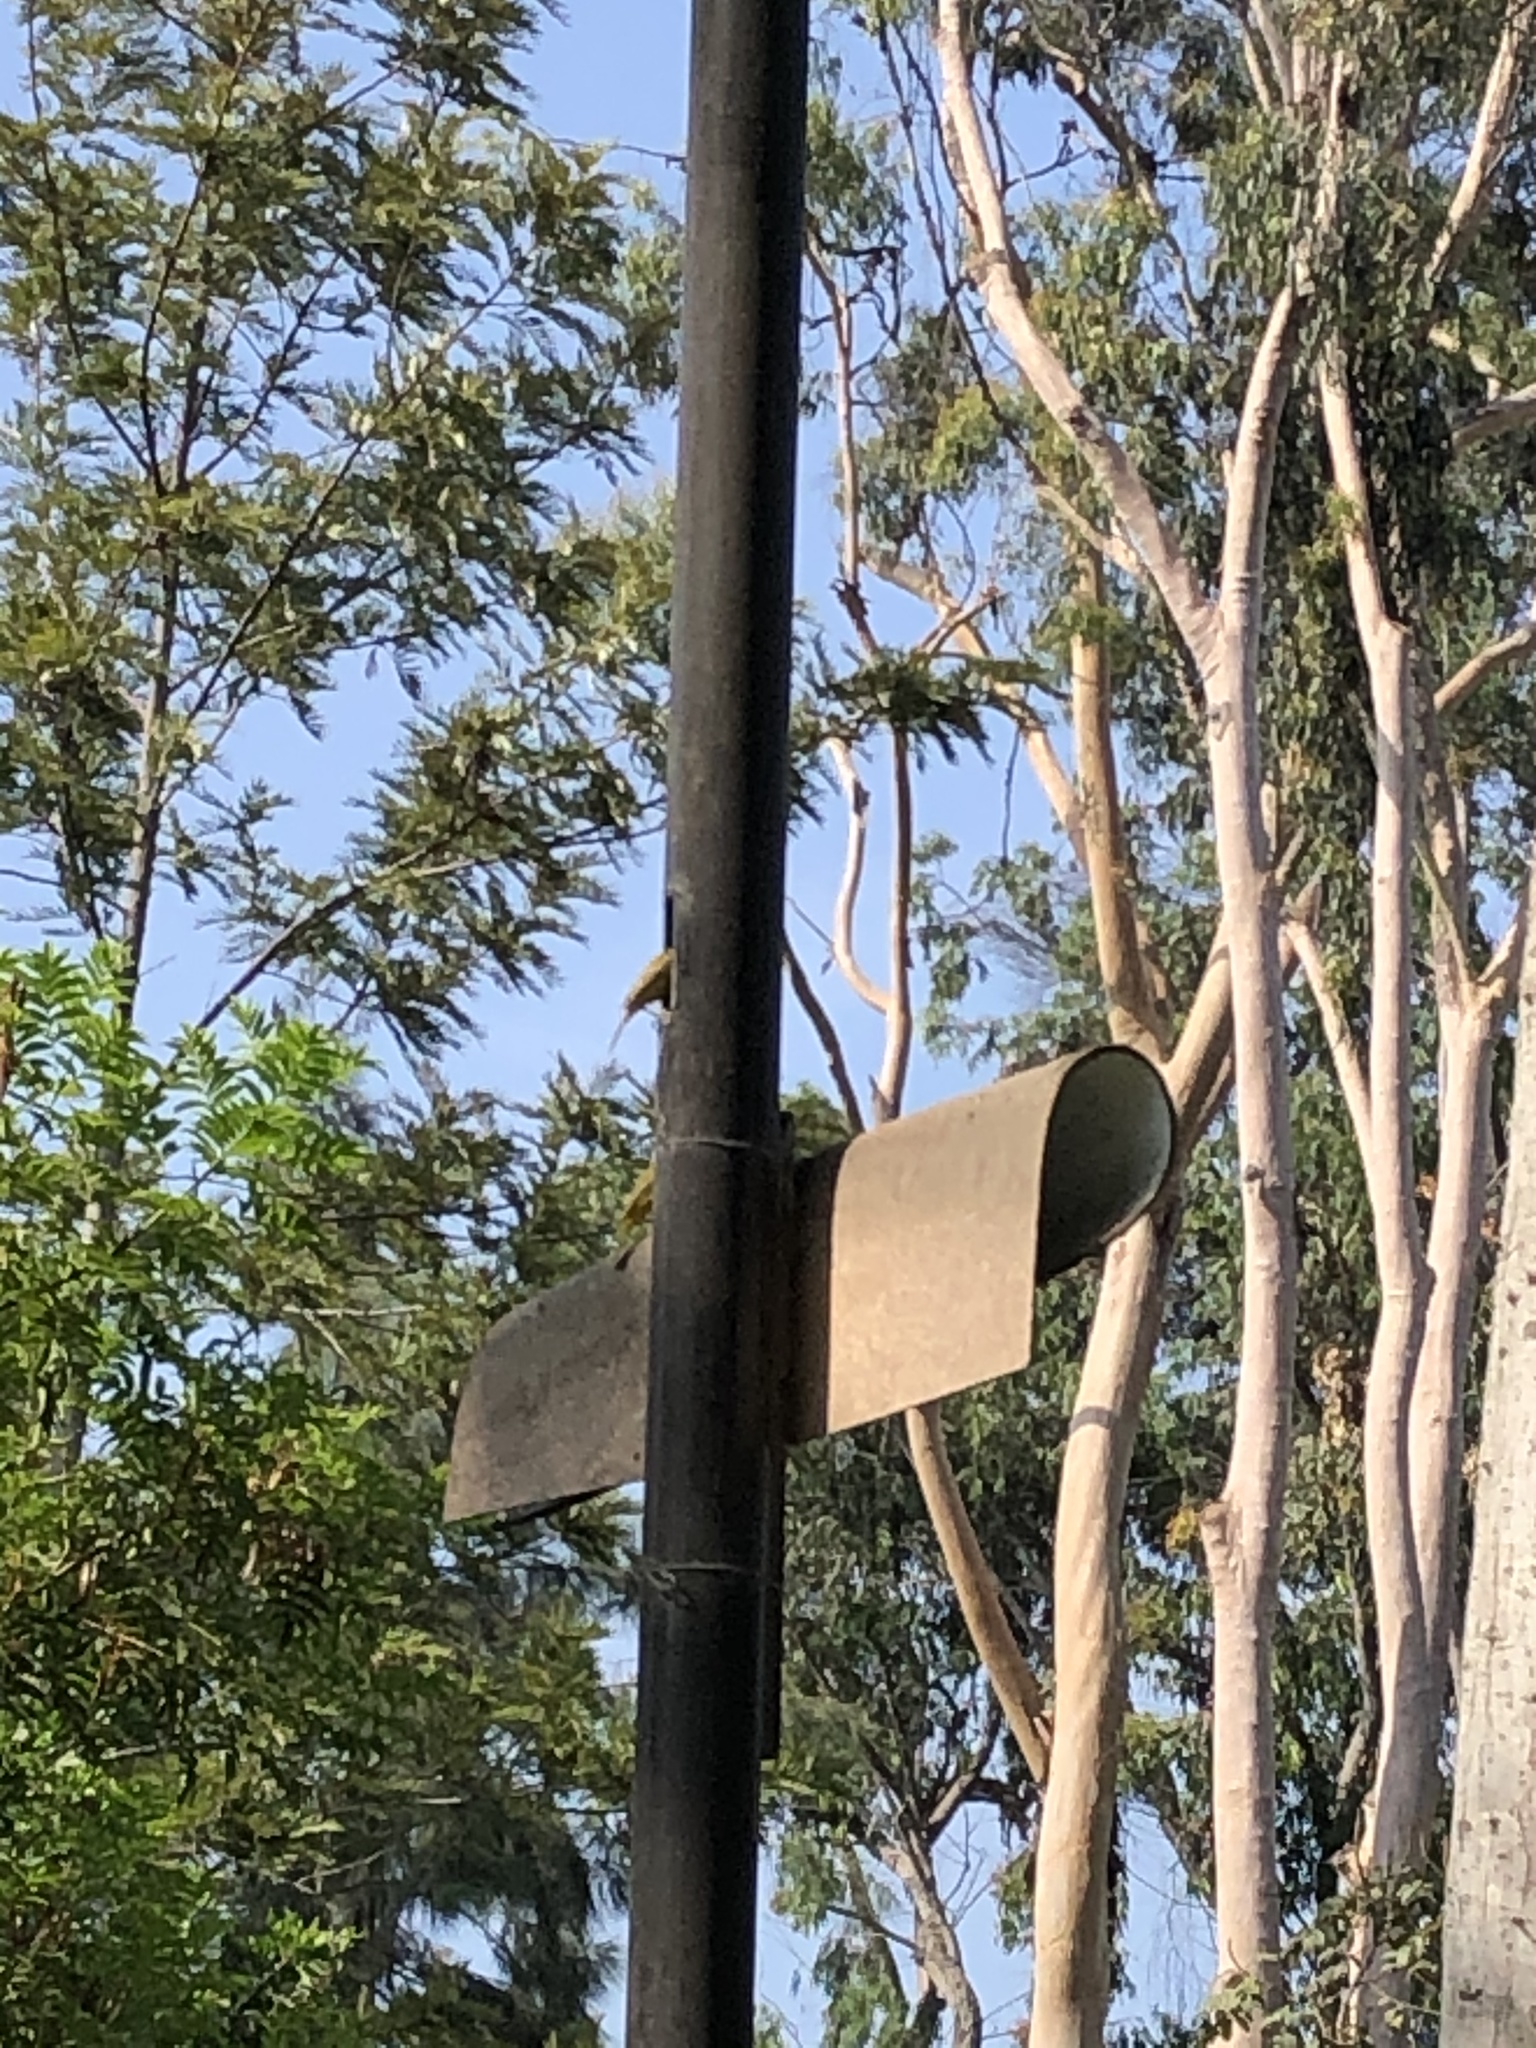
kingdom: Animalia
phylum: Chordata
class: Aves
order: Passeriformes
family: Thraupidae
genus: Sicalis
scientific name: Sicalis flaveola
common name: Saffron finch
